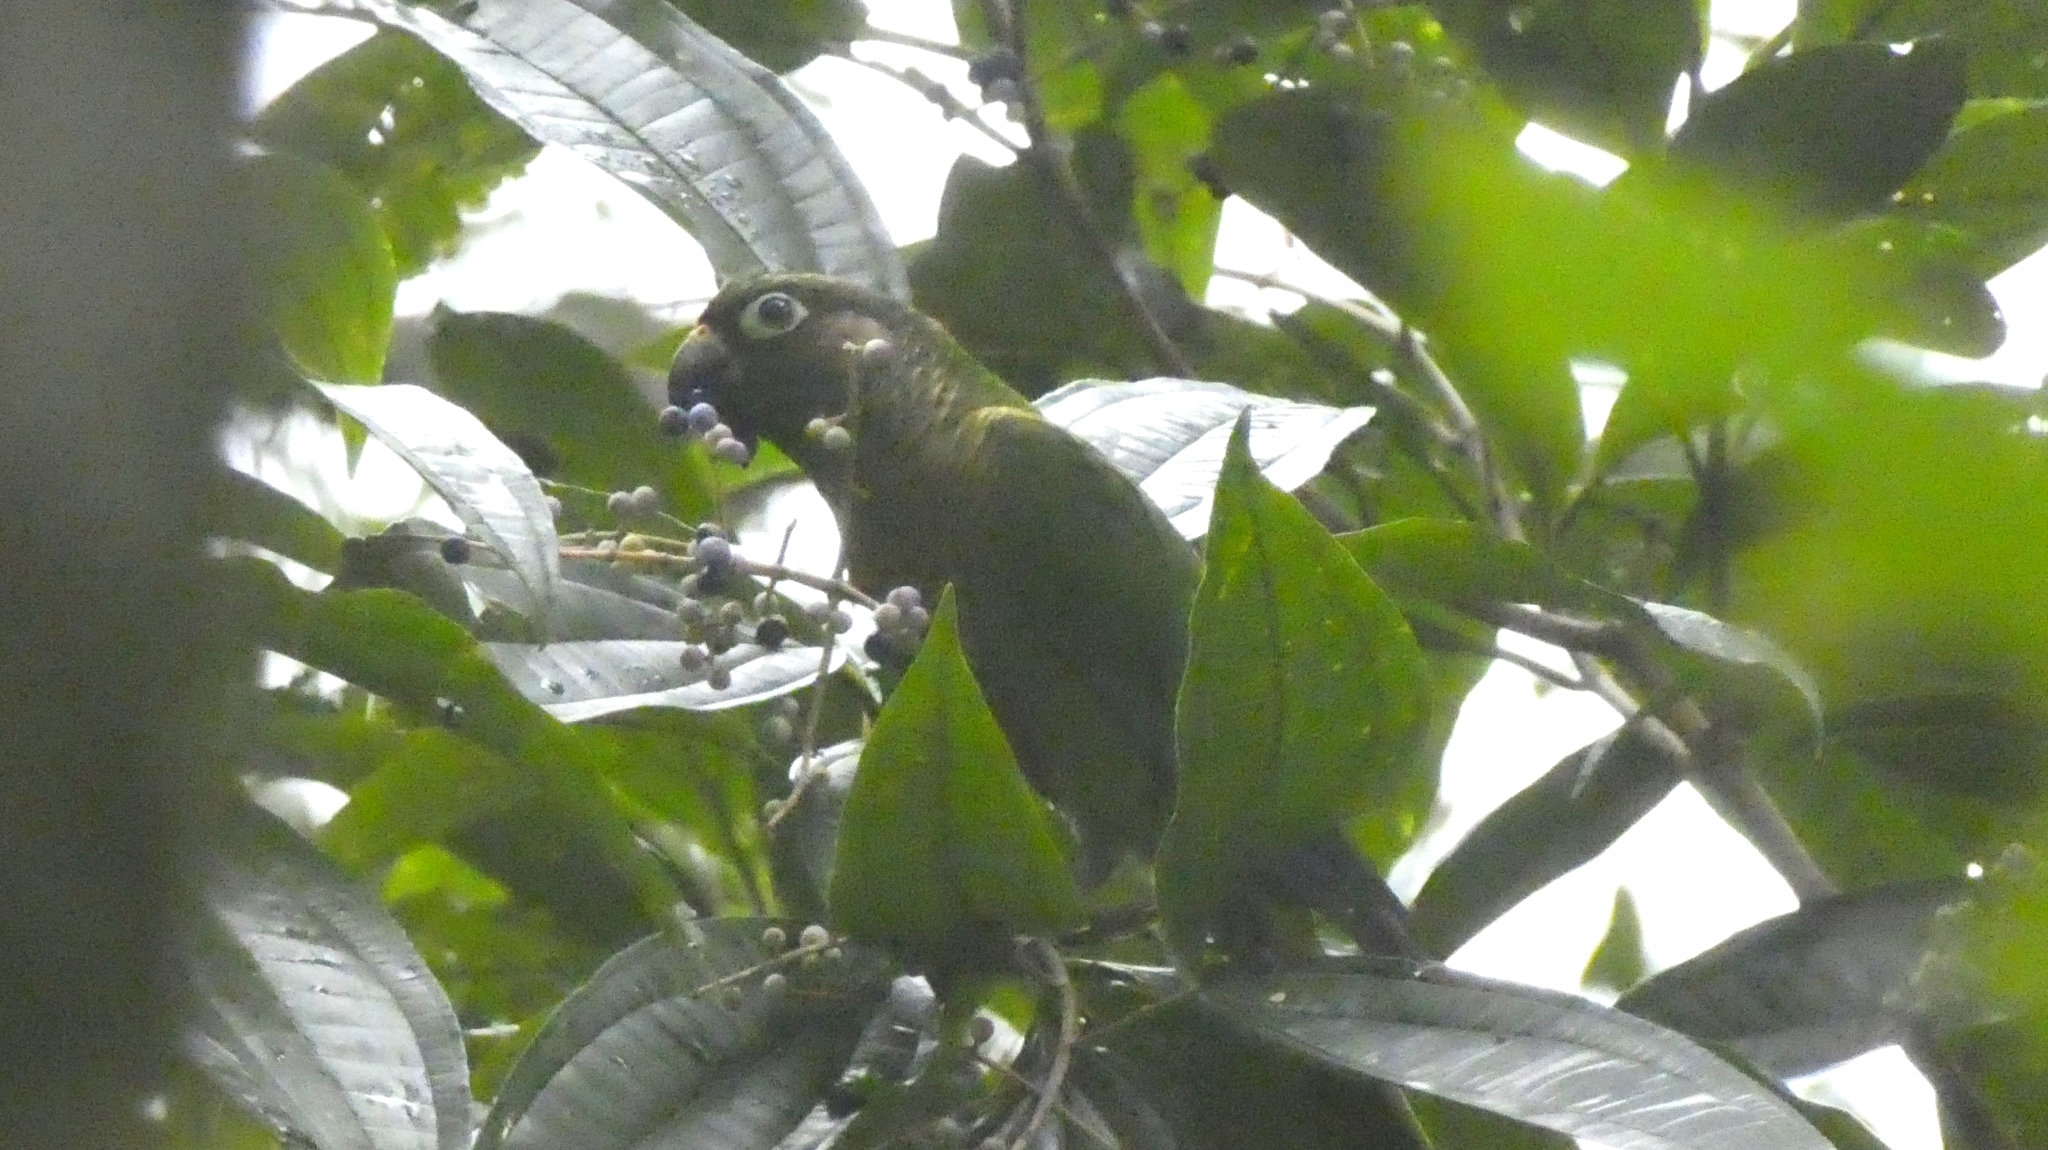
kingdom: Animalia
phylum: Chordata
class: Aves
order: Psittaciformes
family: Psittacidae
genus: Pyrrhura
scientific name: Pyrrhura frontalis
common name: Maroon-bellied parakeet
